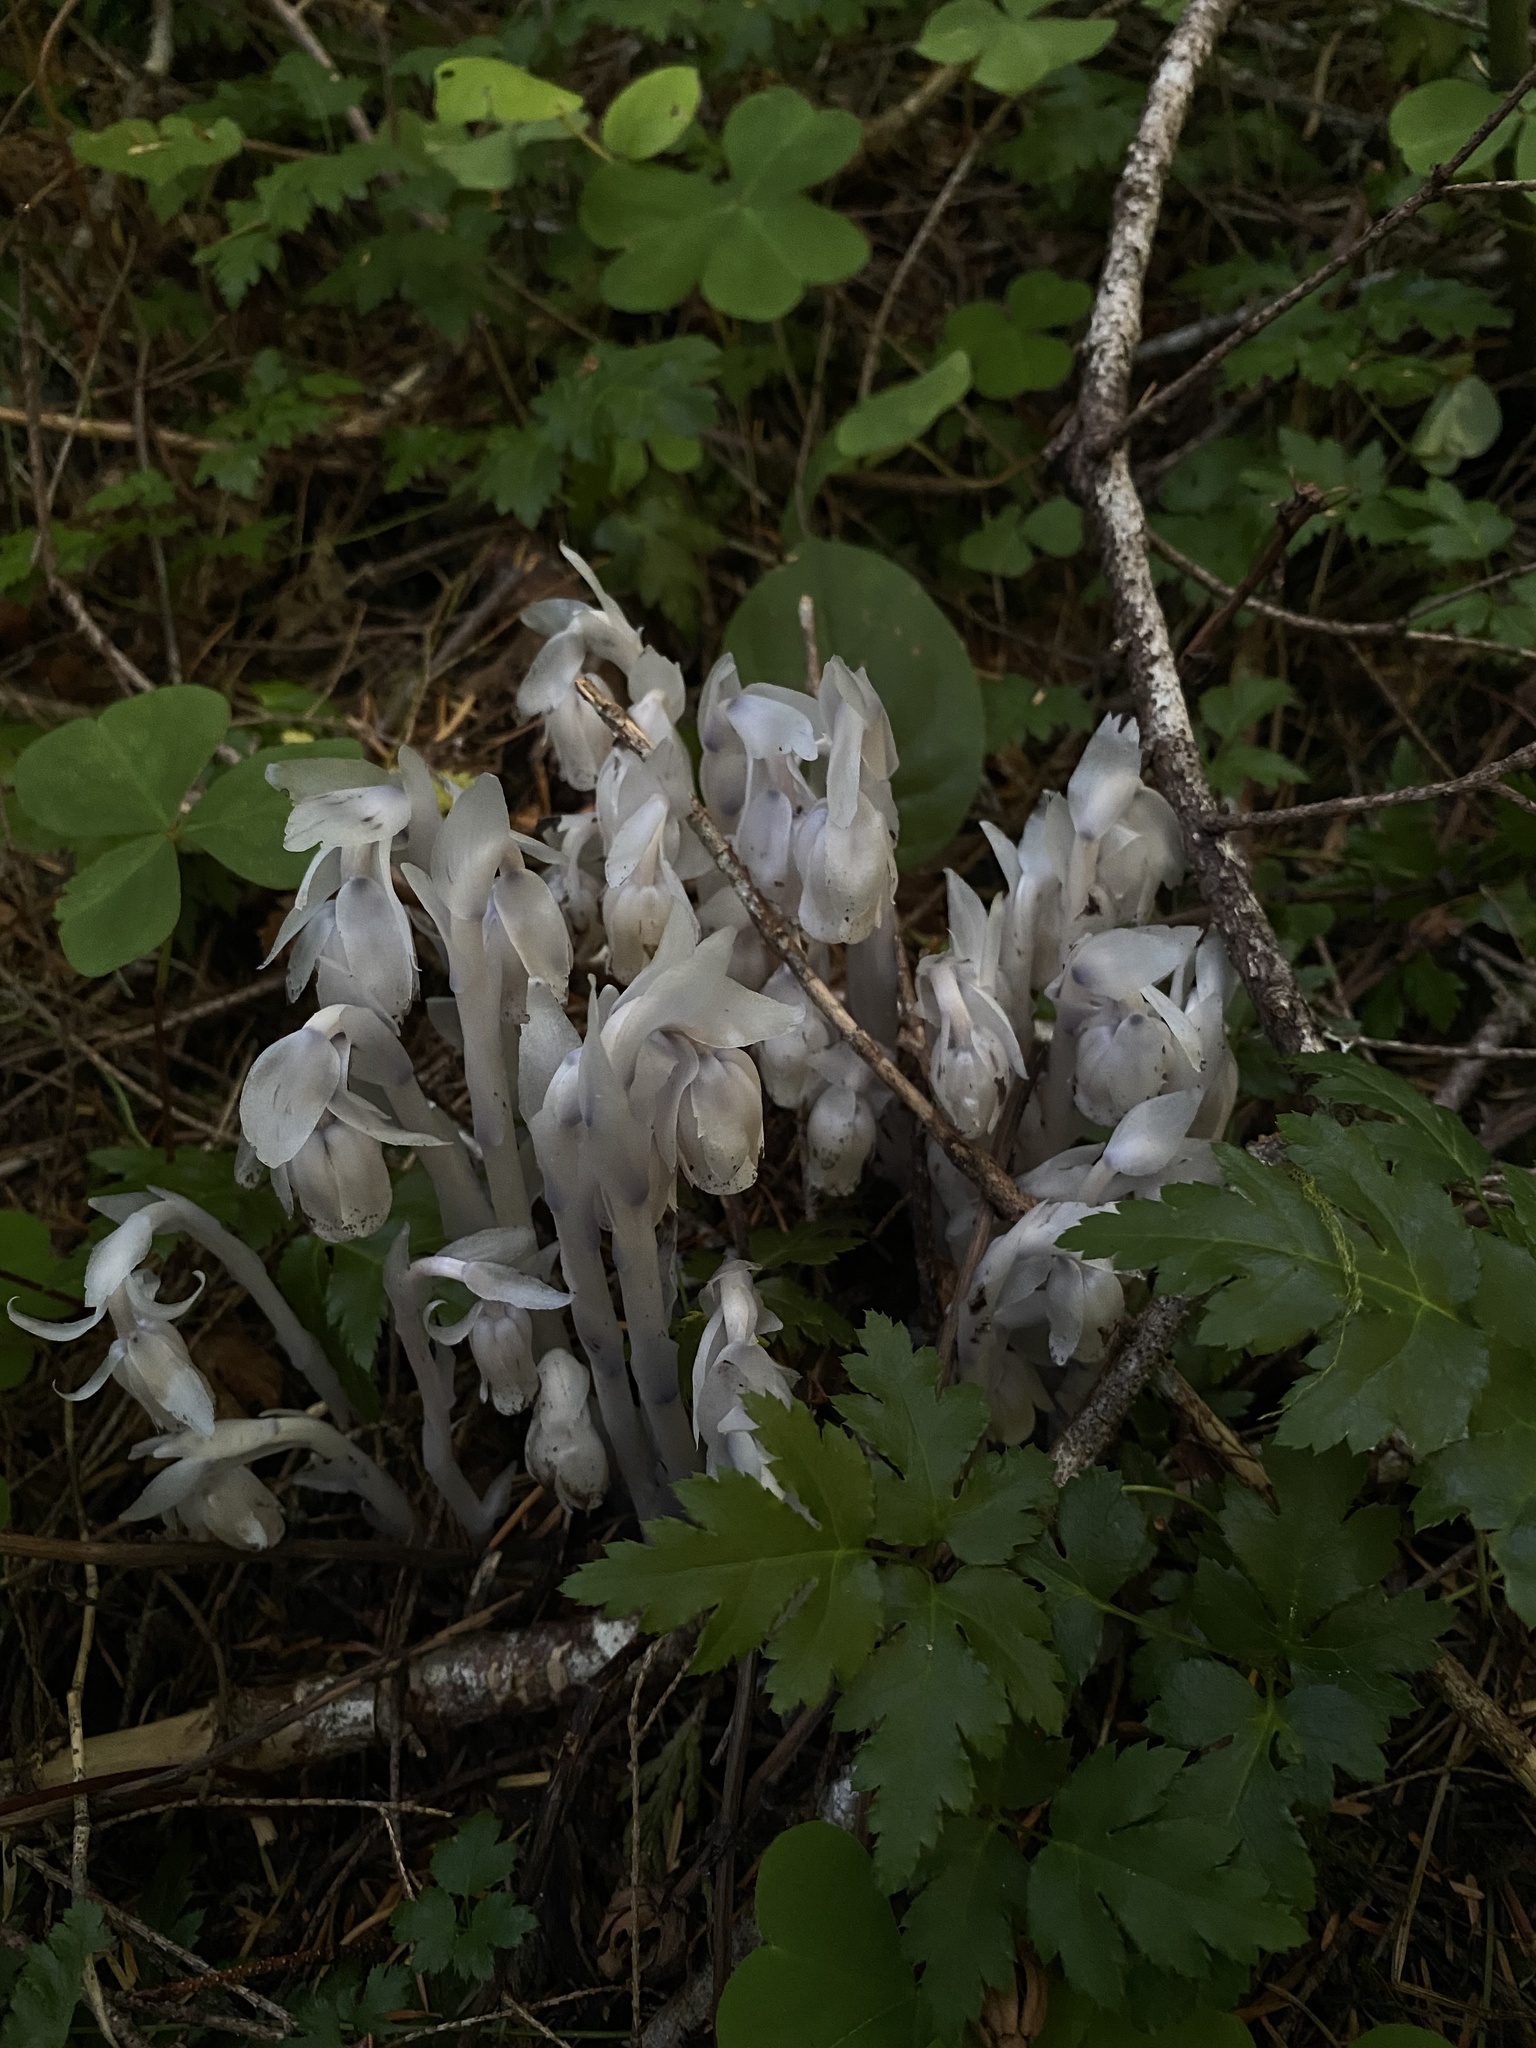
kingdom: Plantae
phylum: Tracheophyta
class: Magnoliopsida
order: Ericales
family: Ericaceae
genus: Monotropa
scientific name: Monotropa uniflora
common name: Convulsion root
